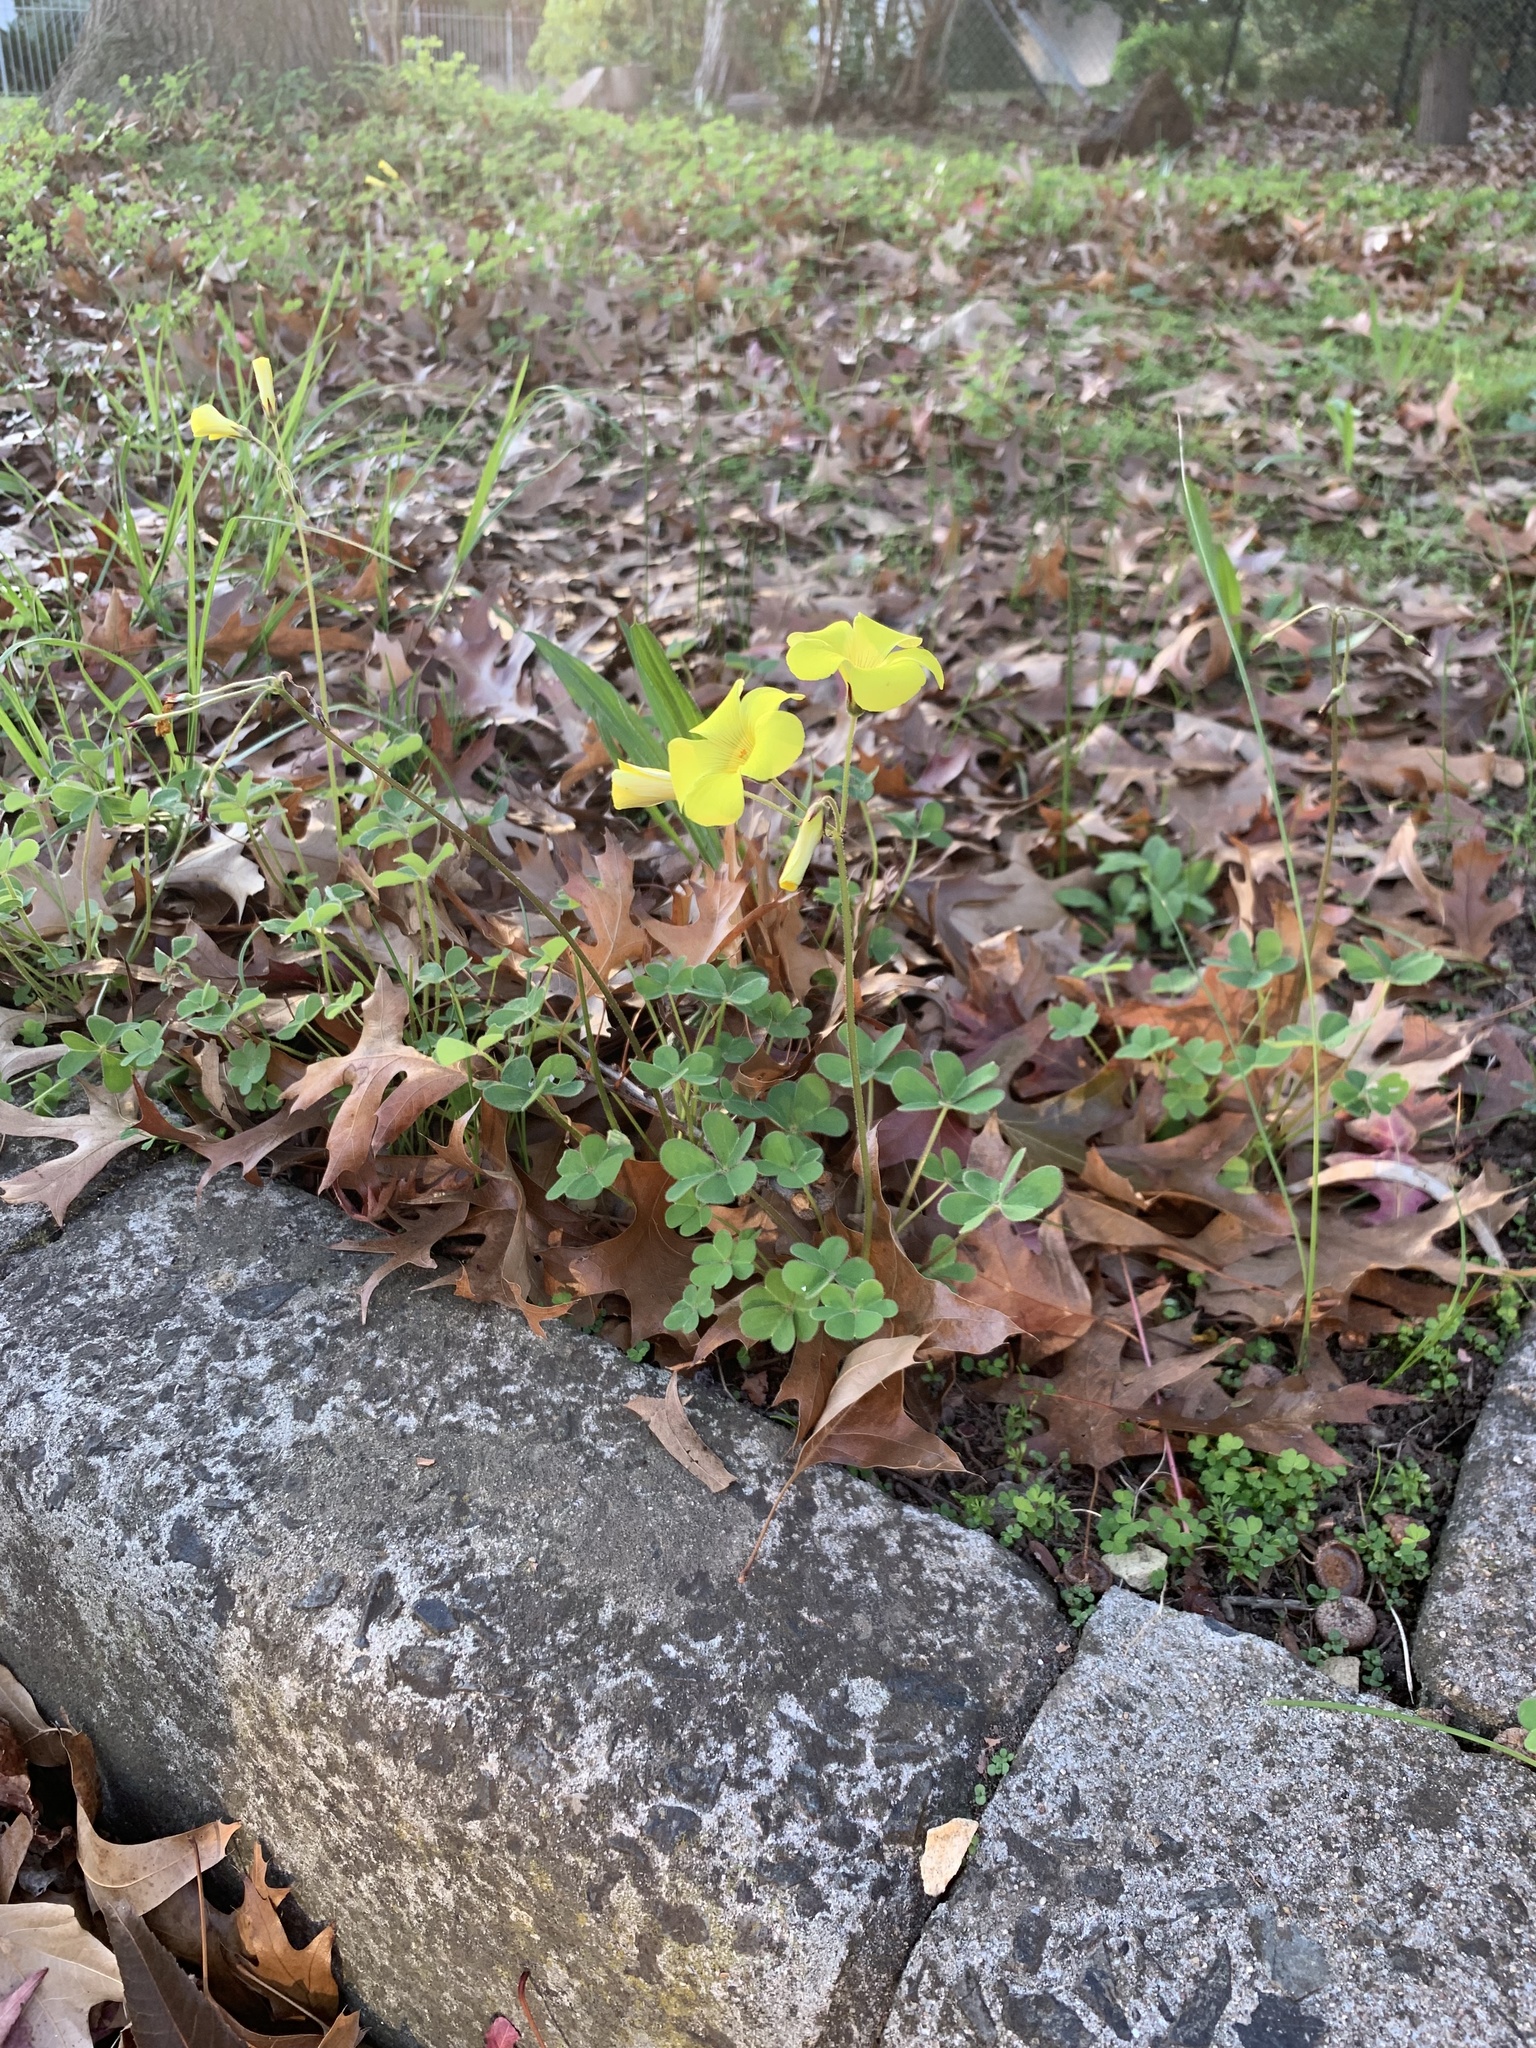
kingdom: Plantae
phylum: Tracheophyta
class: Magnoliopsida
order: Oxalidales
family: Oxalidaceae
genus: Oxalis
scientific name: Oxalis pes-caprae
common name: Bermuda-buttercup
